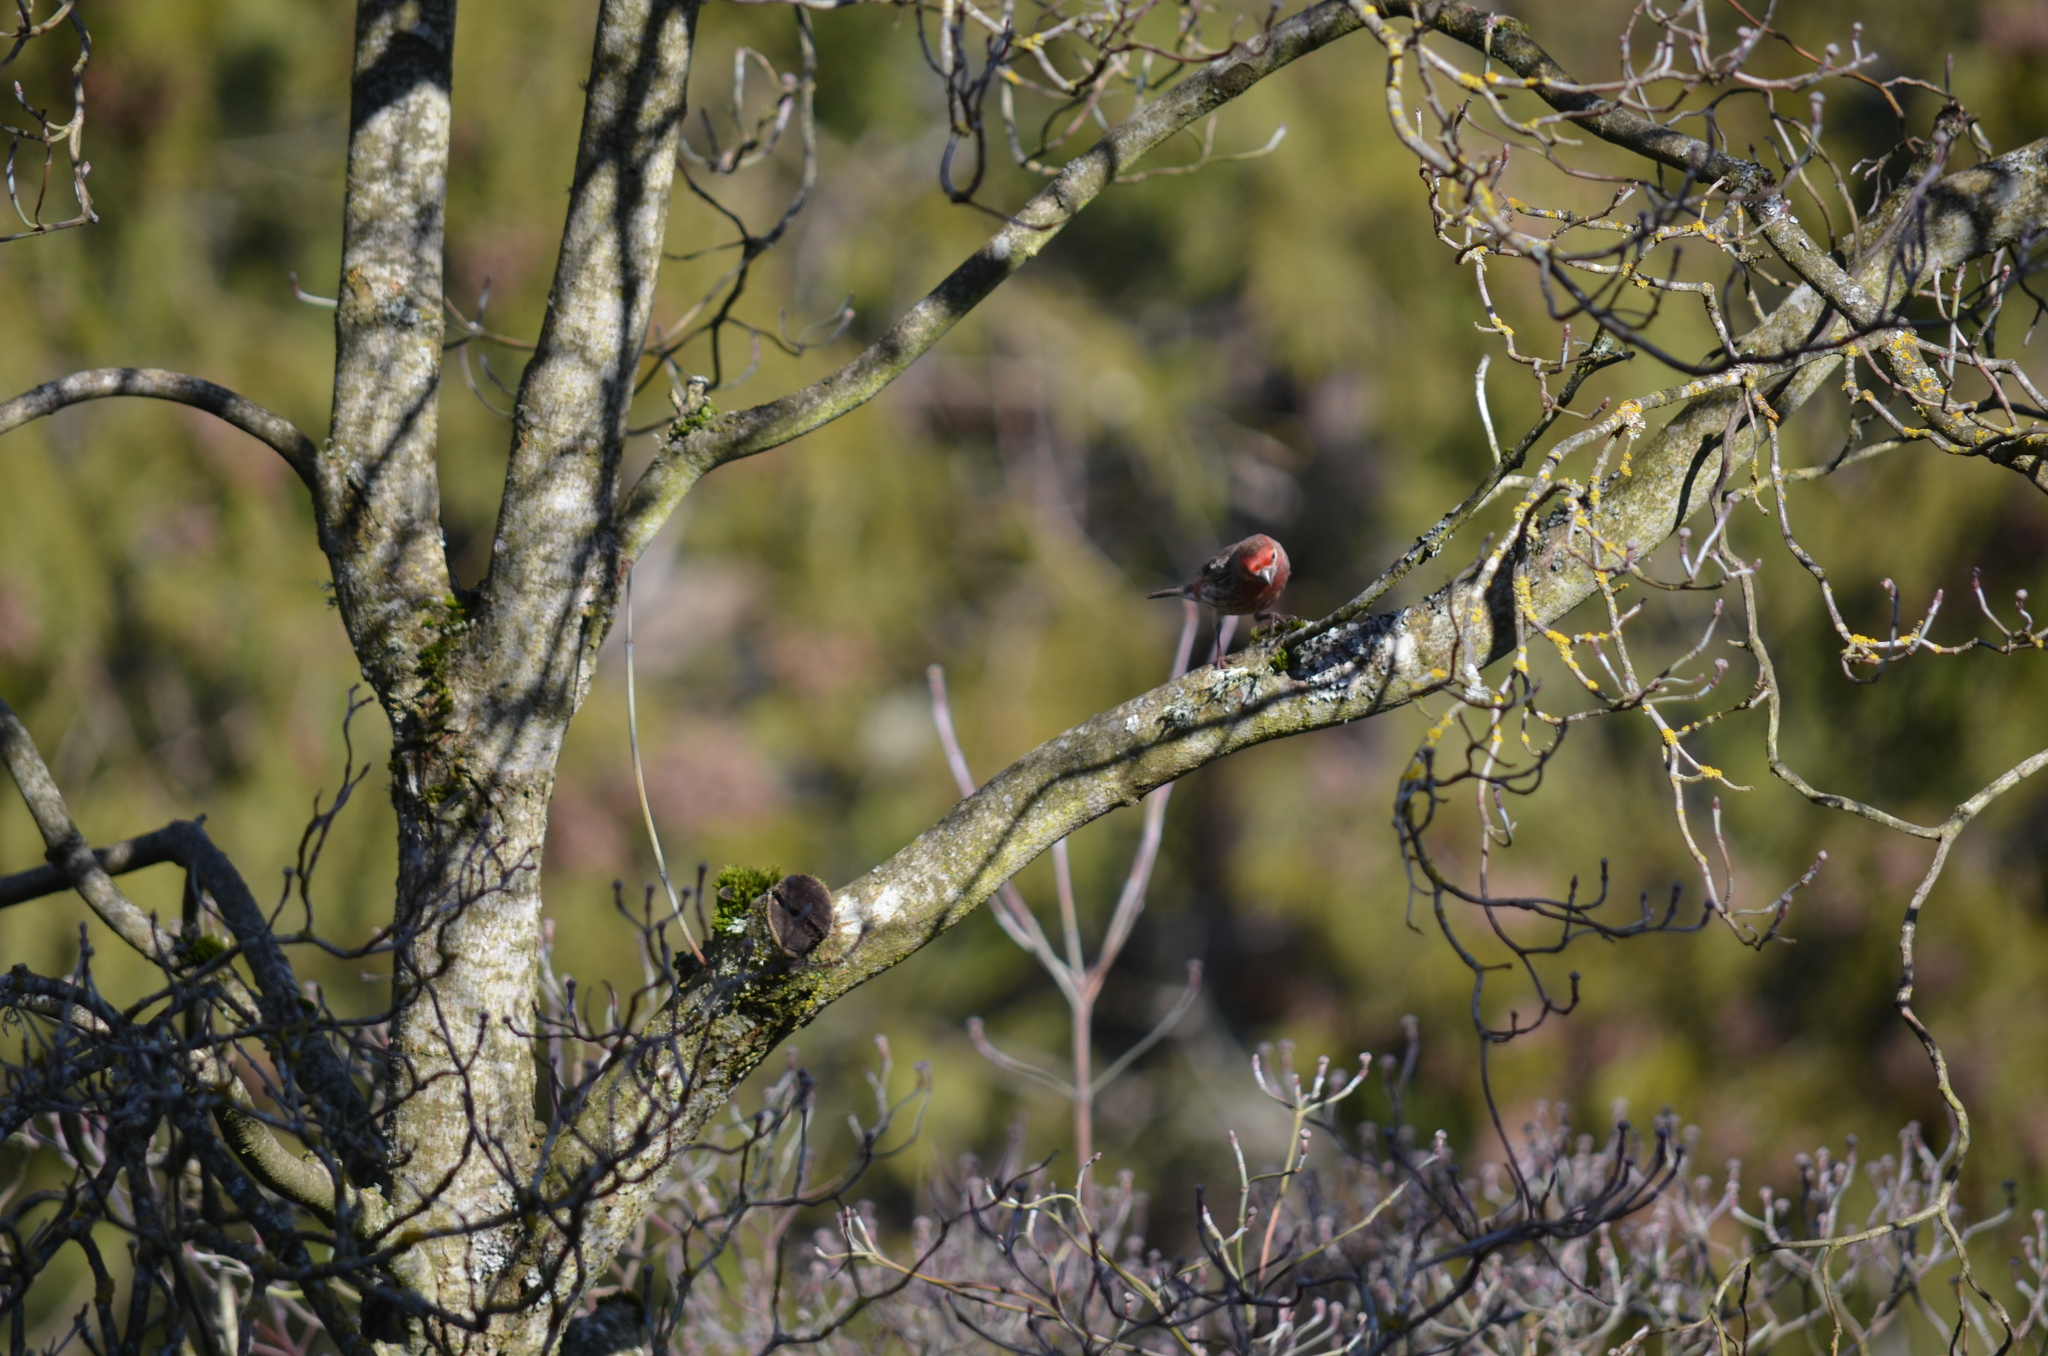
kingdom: Animalia
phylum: Chordata
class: Aves
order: Passeriformes
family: Fringillidae
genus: Haemorhous
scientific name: Haemorhous mexicanus
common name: House finch
